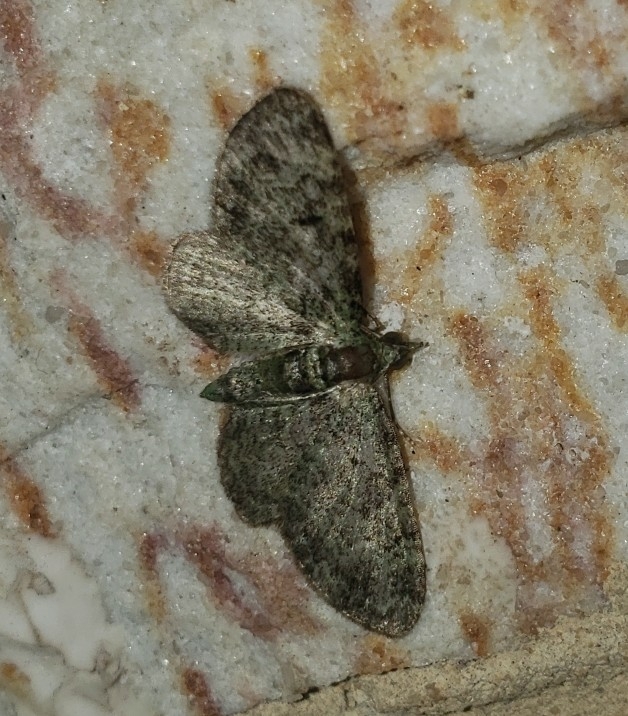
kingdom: Animalia
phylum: Arthropoda
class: Insecta
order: Lepidoptera
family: Geometridae
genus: Pasiphila
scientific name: Pasiphila rectangulata
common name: Green pug
